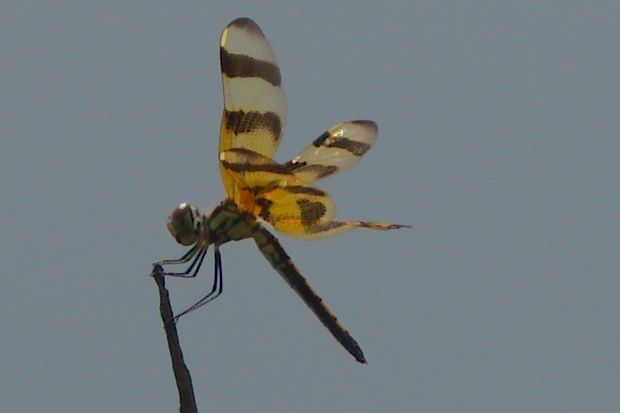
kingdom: Animalia
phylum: Arthropoda
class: Insecta
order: Odonata
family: Libellulidae
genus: Celithemis
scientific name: Celithemis eponina
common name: Halloween pennant
